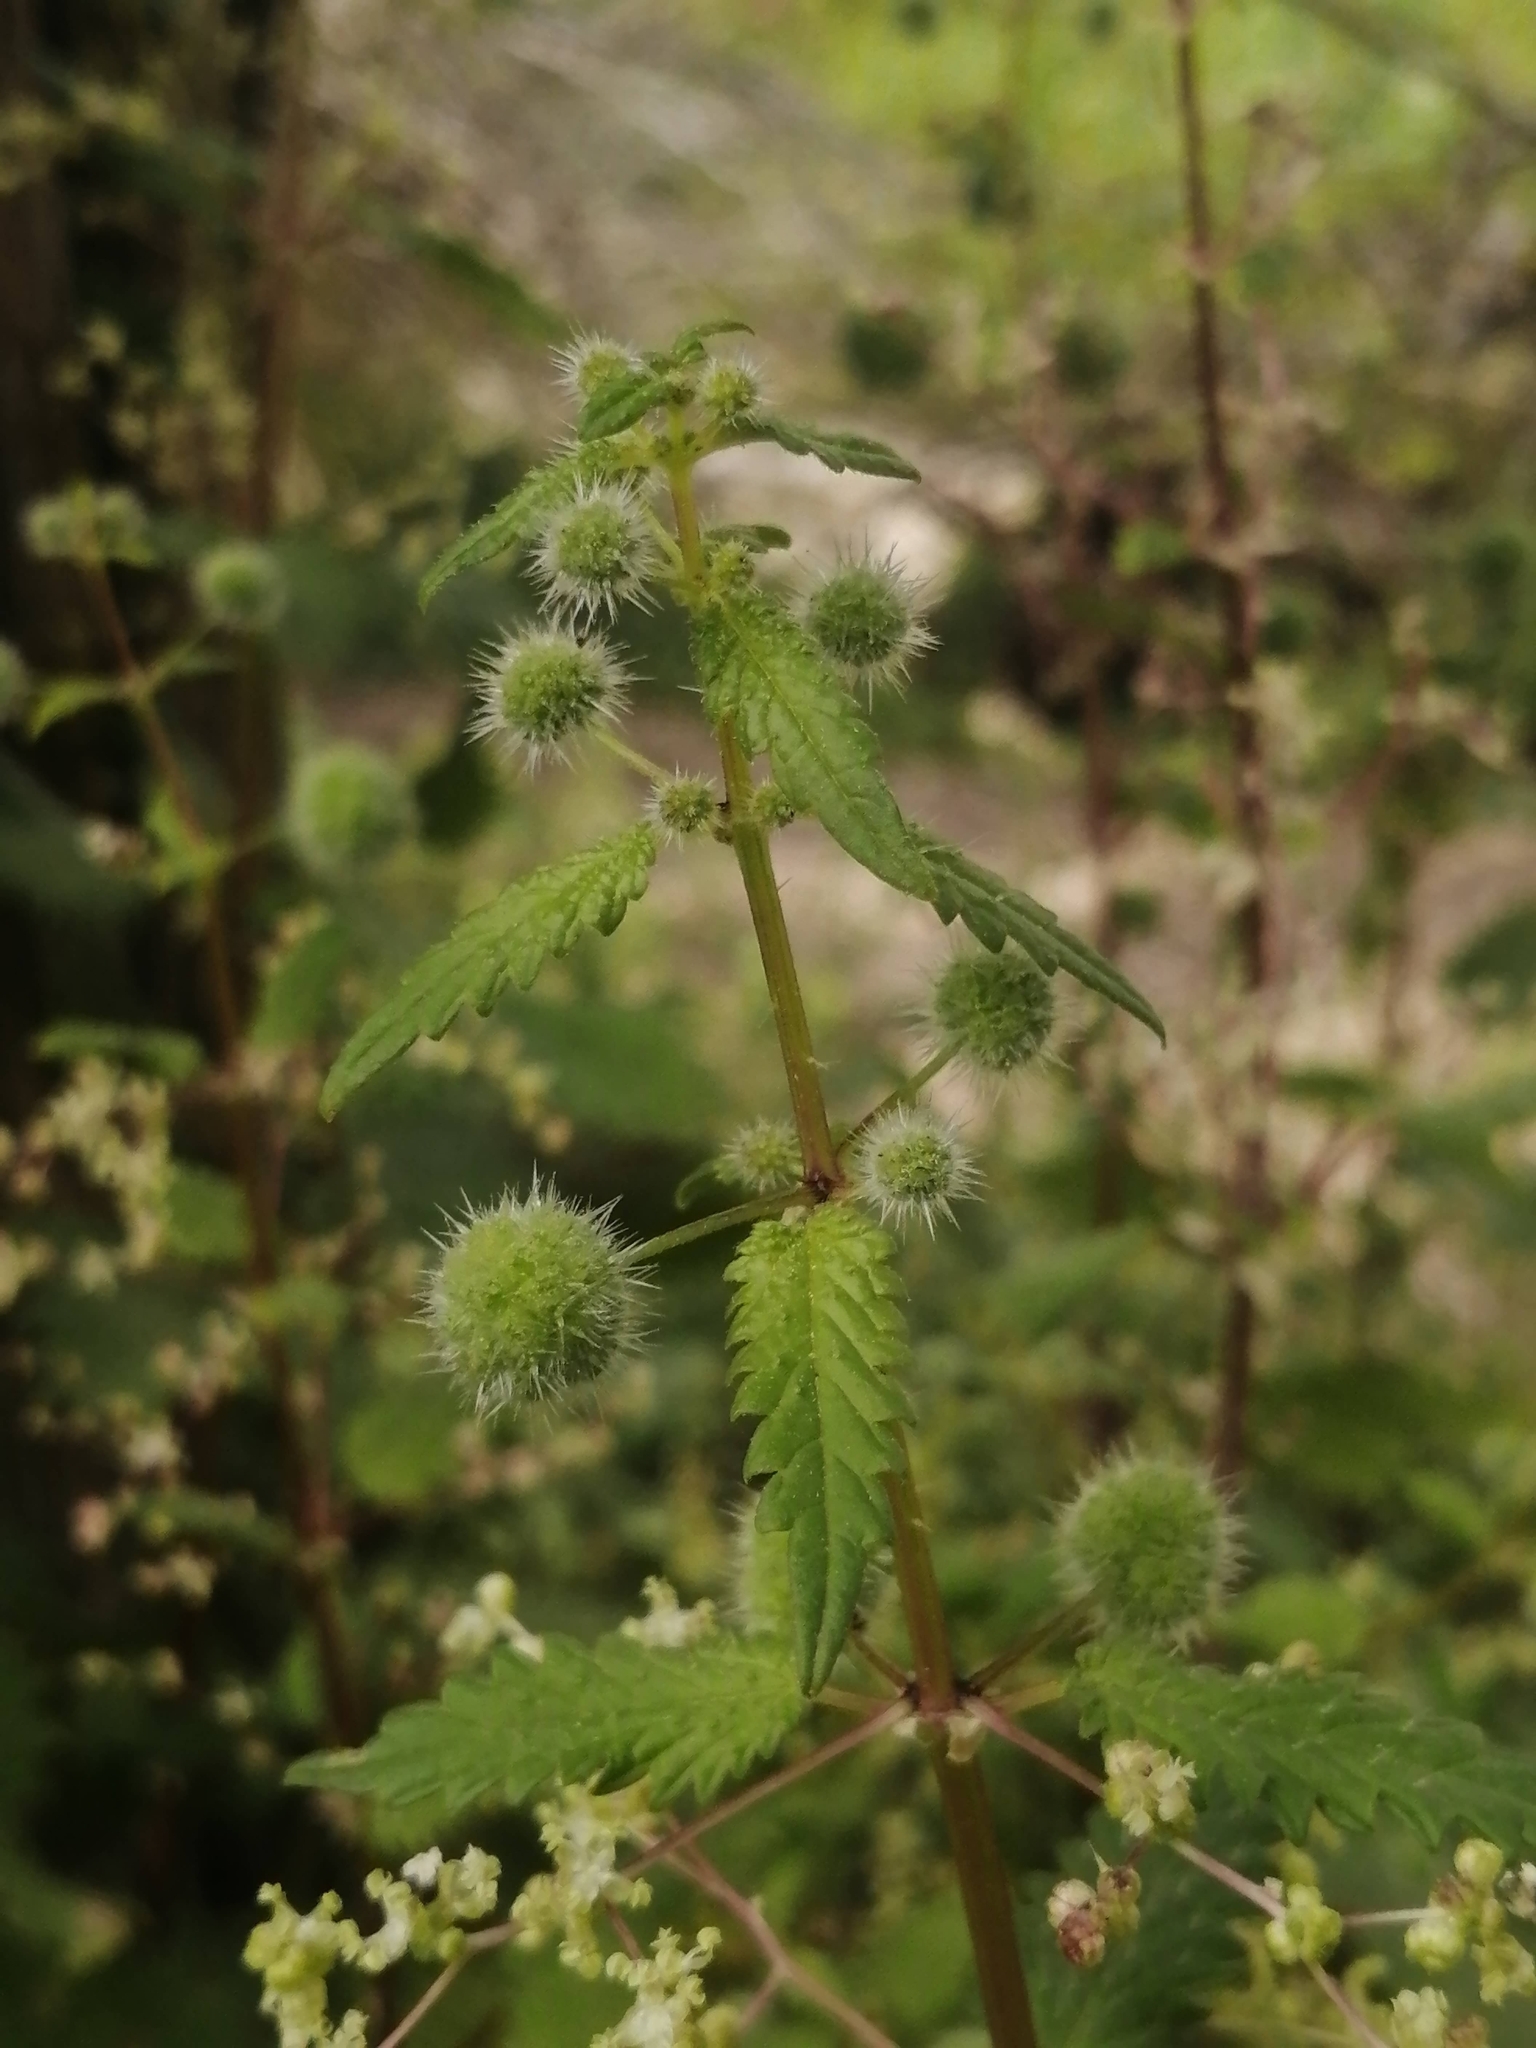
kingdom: Plantae
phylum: Tracheophyta
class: Magnoliopsida
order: Rosales
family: Urticaceae
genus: Urtica
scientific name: Urtica pilulifera
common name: Roman nettle
